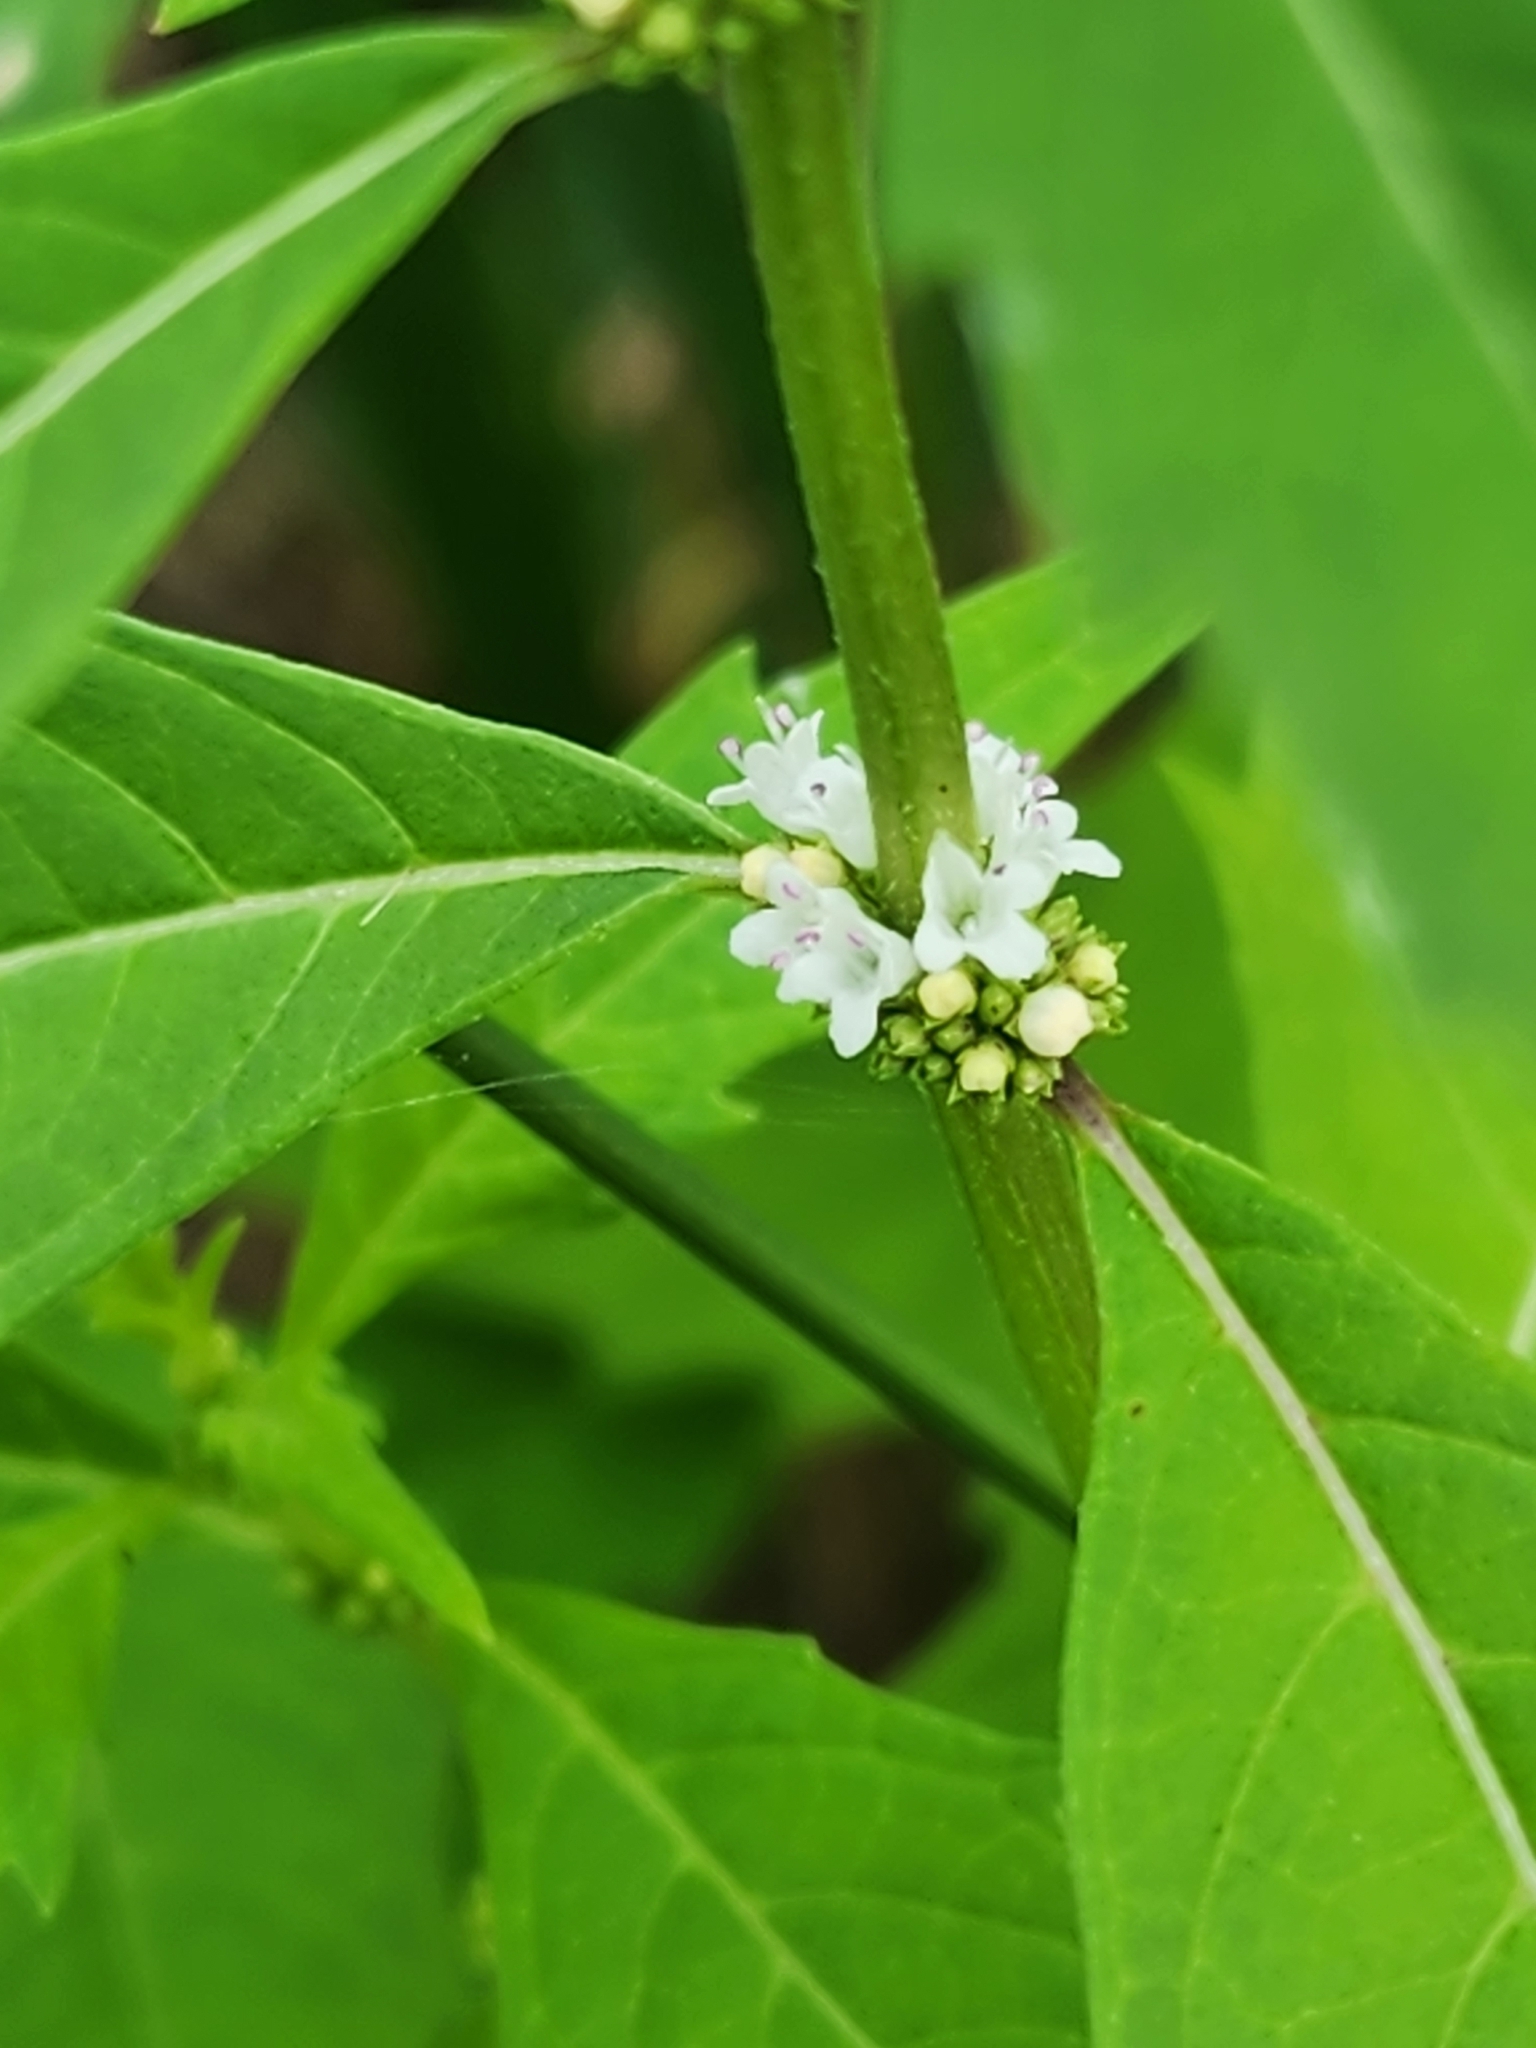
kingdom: Plantae
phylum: Tracheophyta
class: Magnoliopsida
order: Lamiales
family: Lamiaceae
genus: Lycopus
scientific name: Lycopus uniflorus
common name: Northern bugleweed
